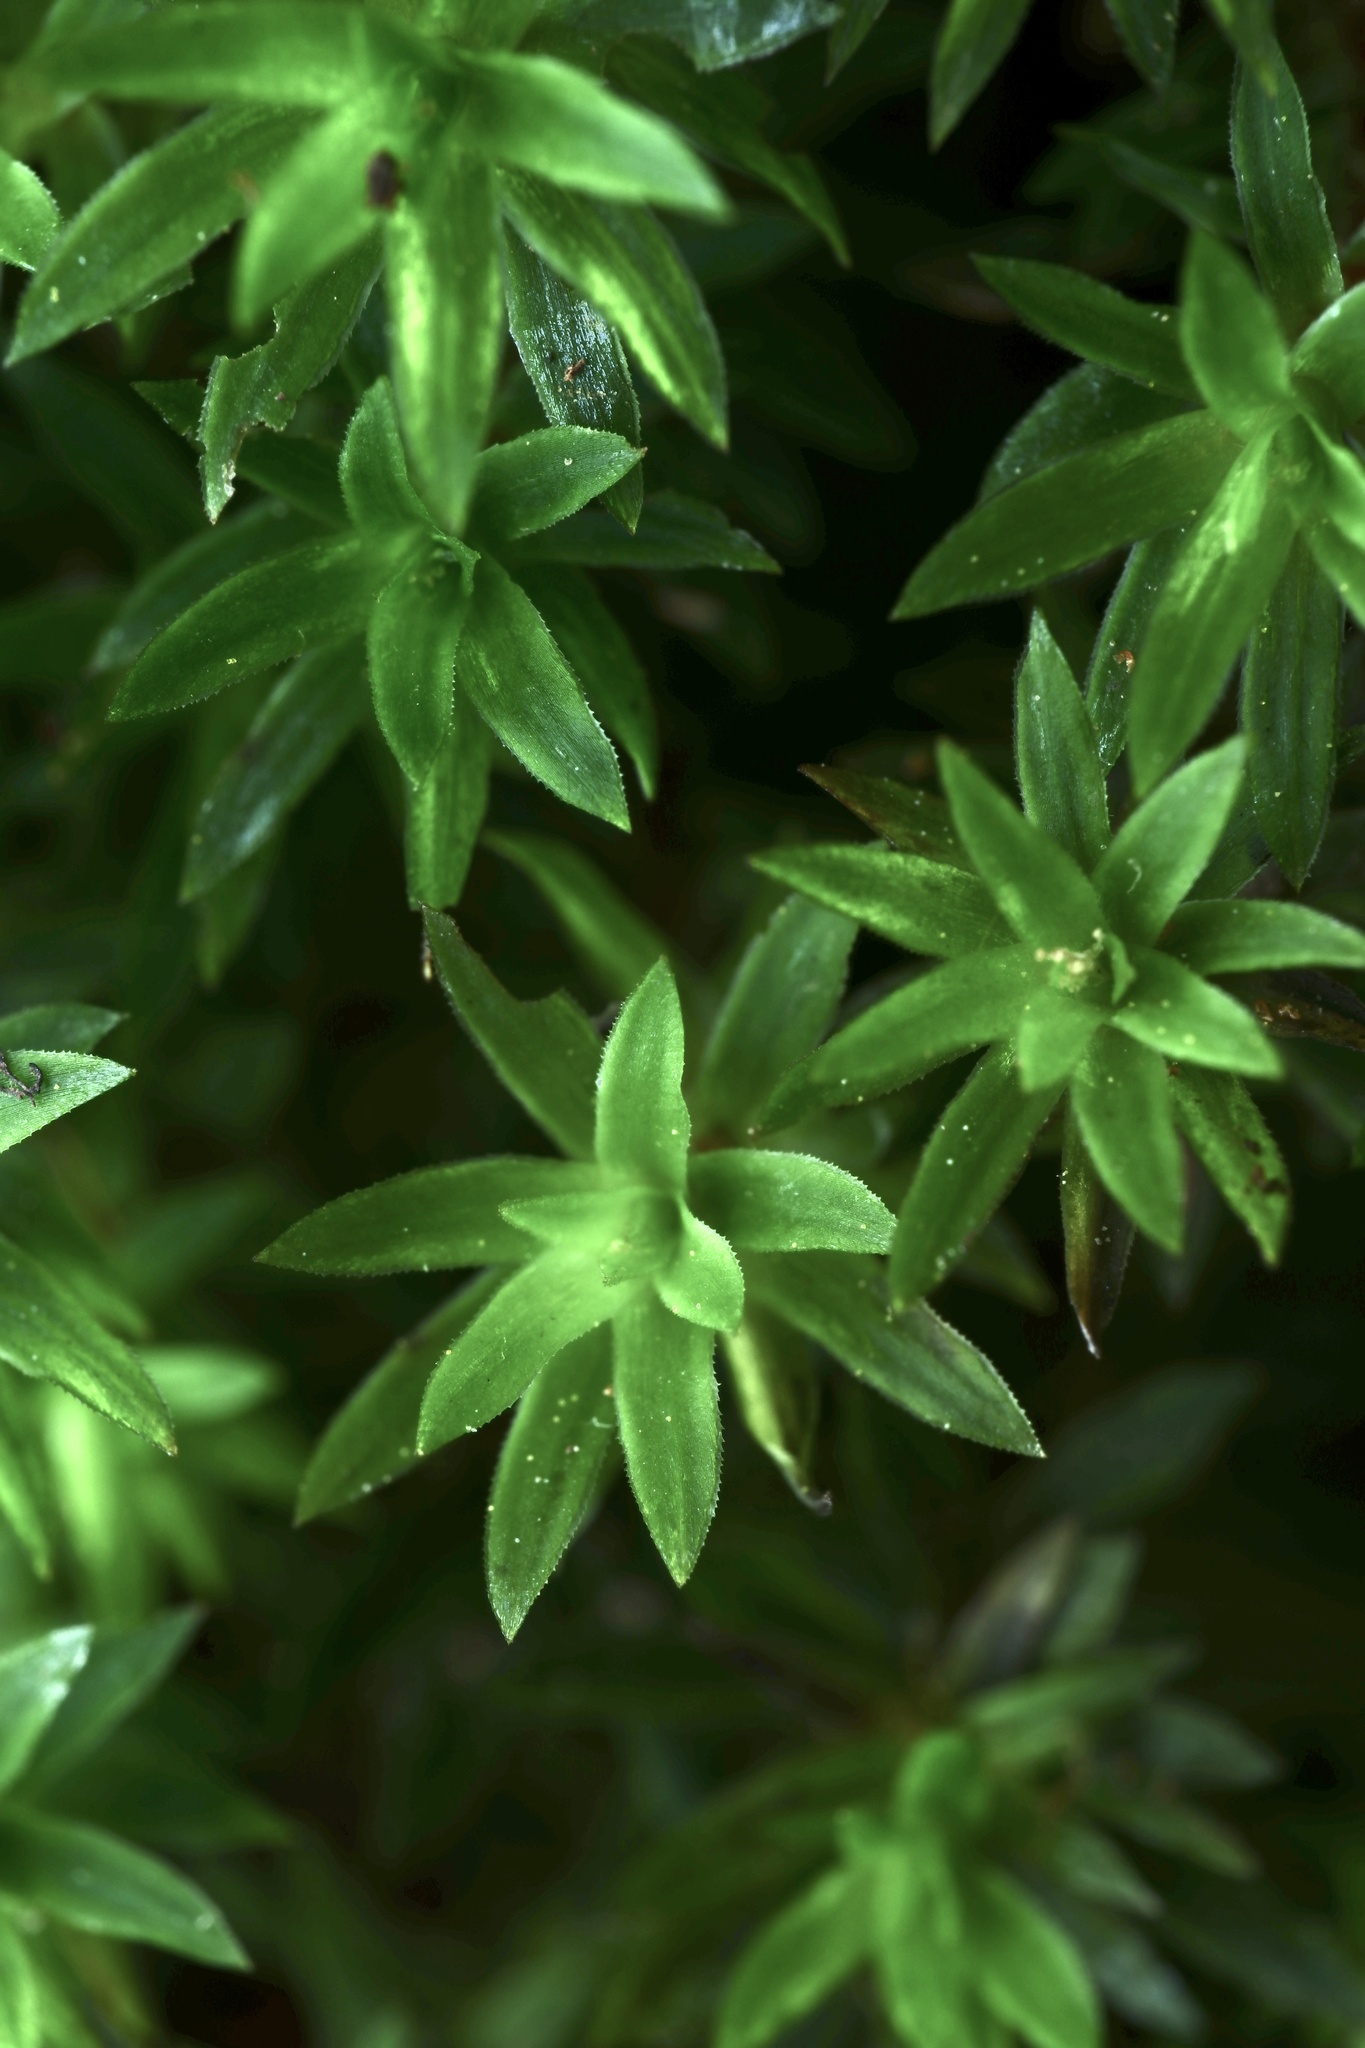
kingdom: Plantae
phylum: Bryophyta
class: Polytrichopsida
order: Polytrichales
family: Polytrichaceae
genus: Pogonatum
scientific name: Pogonatum subulatum
